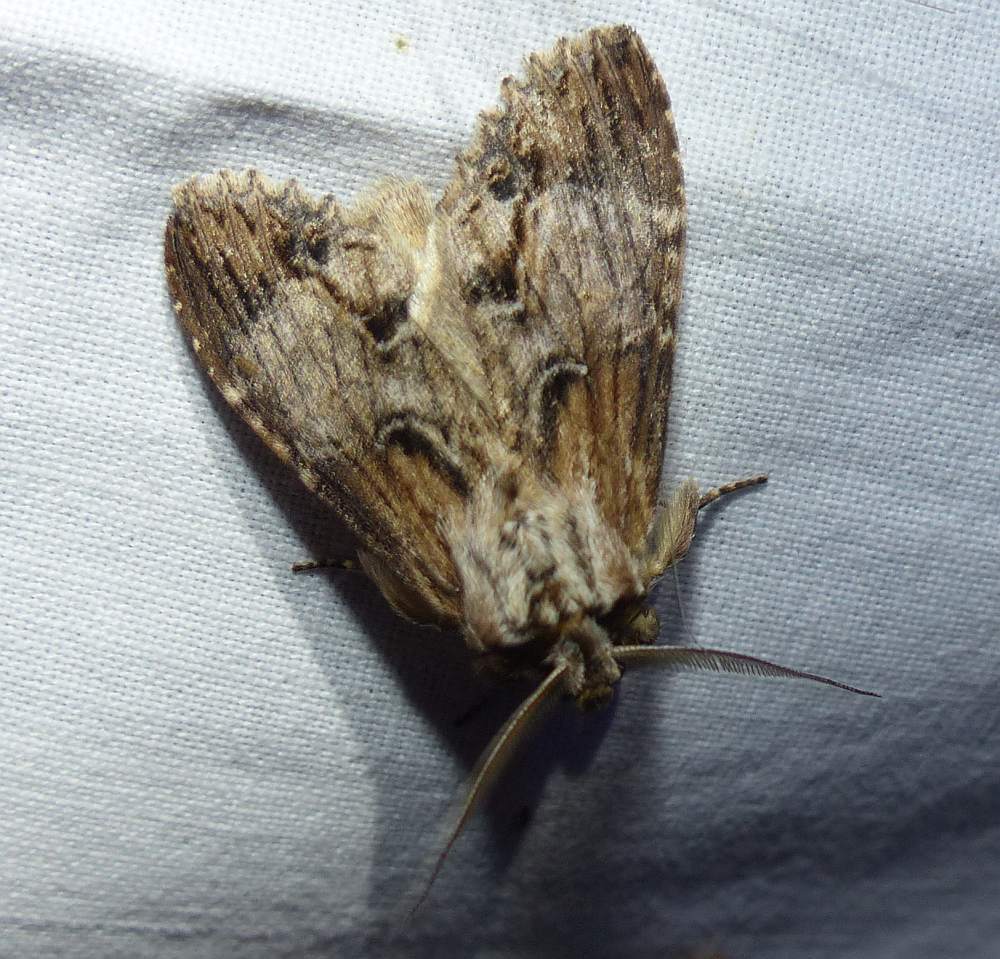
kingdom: Animalia
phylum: Arthropoda
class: Insecta
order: Lepidoptera
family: Notodontidae
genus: Dasylophia
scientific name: Dasylophia thyatiroides
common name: Gray-patched prominent
